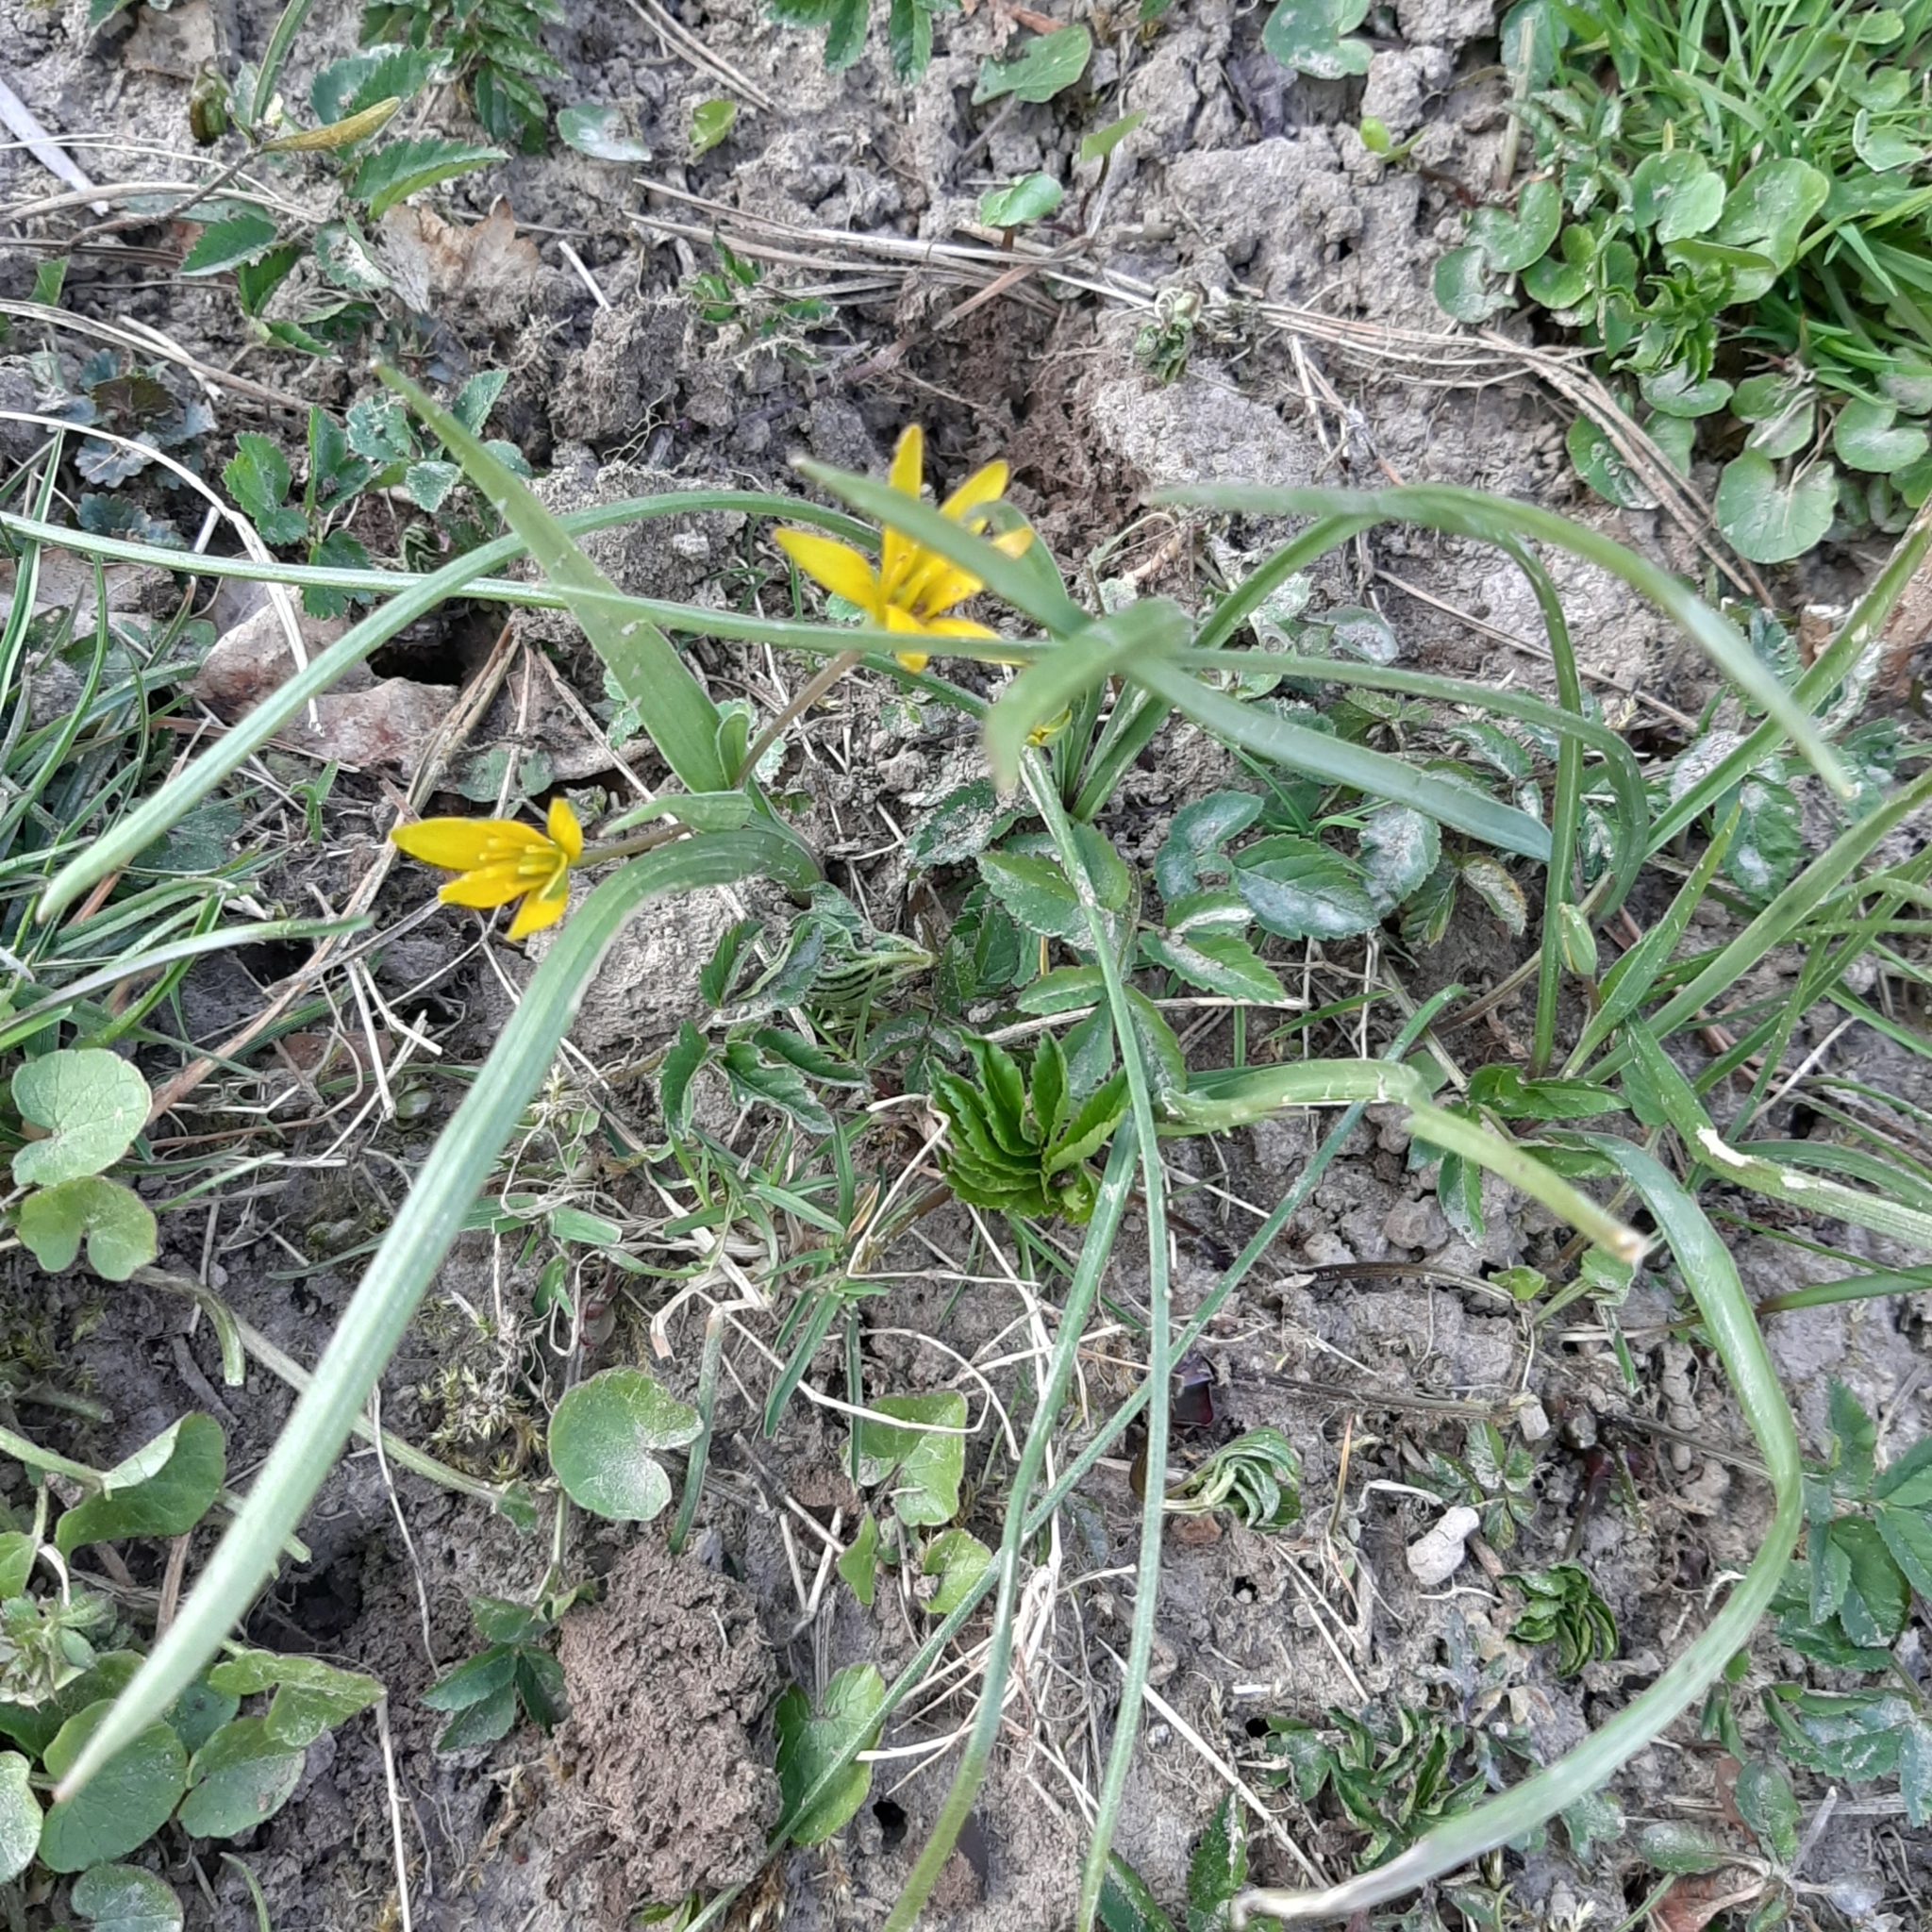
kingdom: Plantae
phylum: Tracheophyta
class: Liliopsida
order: Liliales
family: Liliaceae
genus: Gagea
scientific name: Gagea lutea
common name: Yellow star-of-bethlehem
